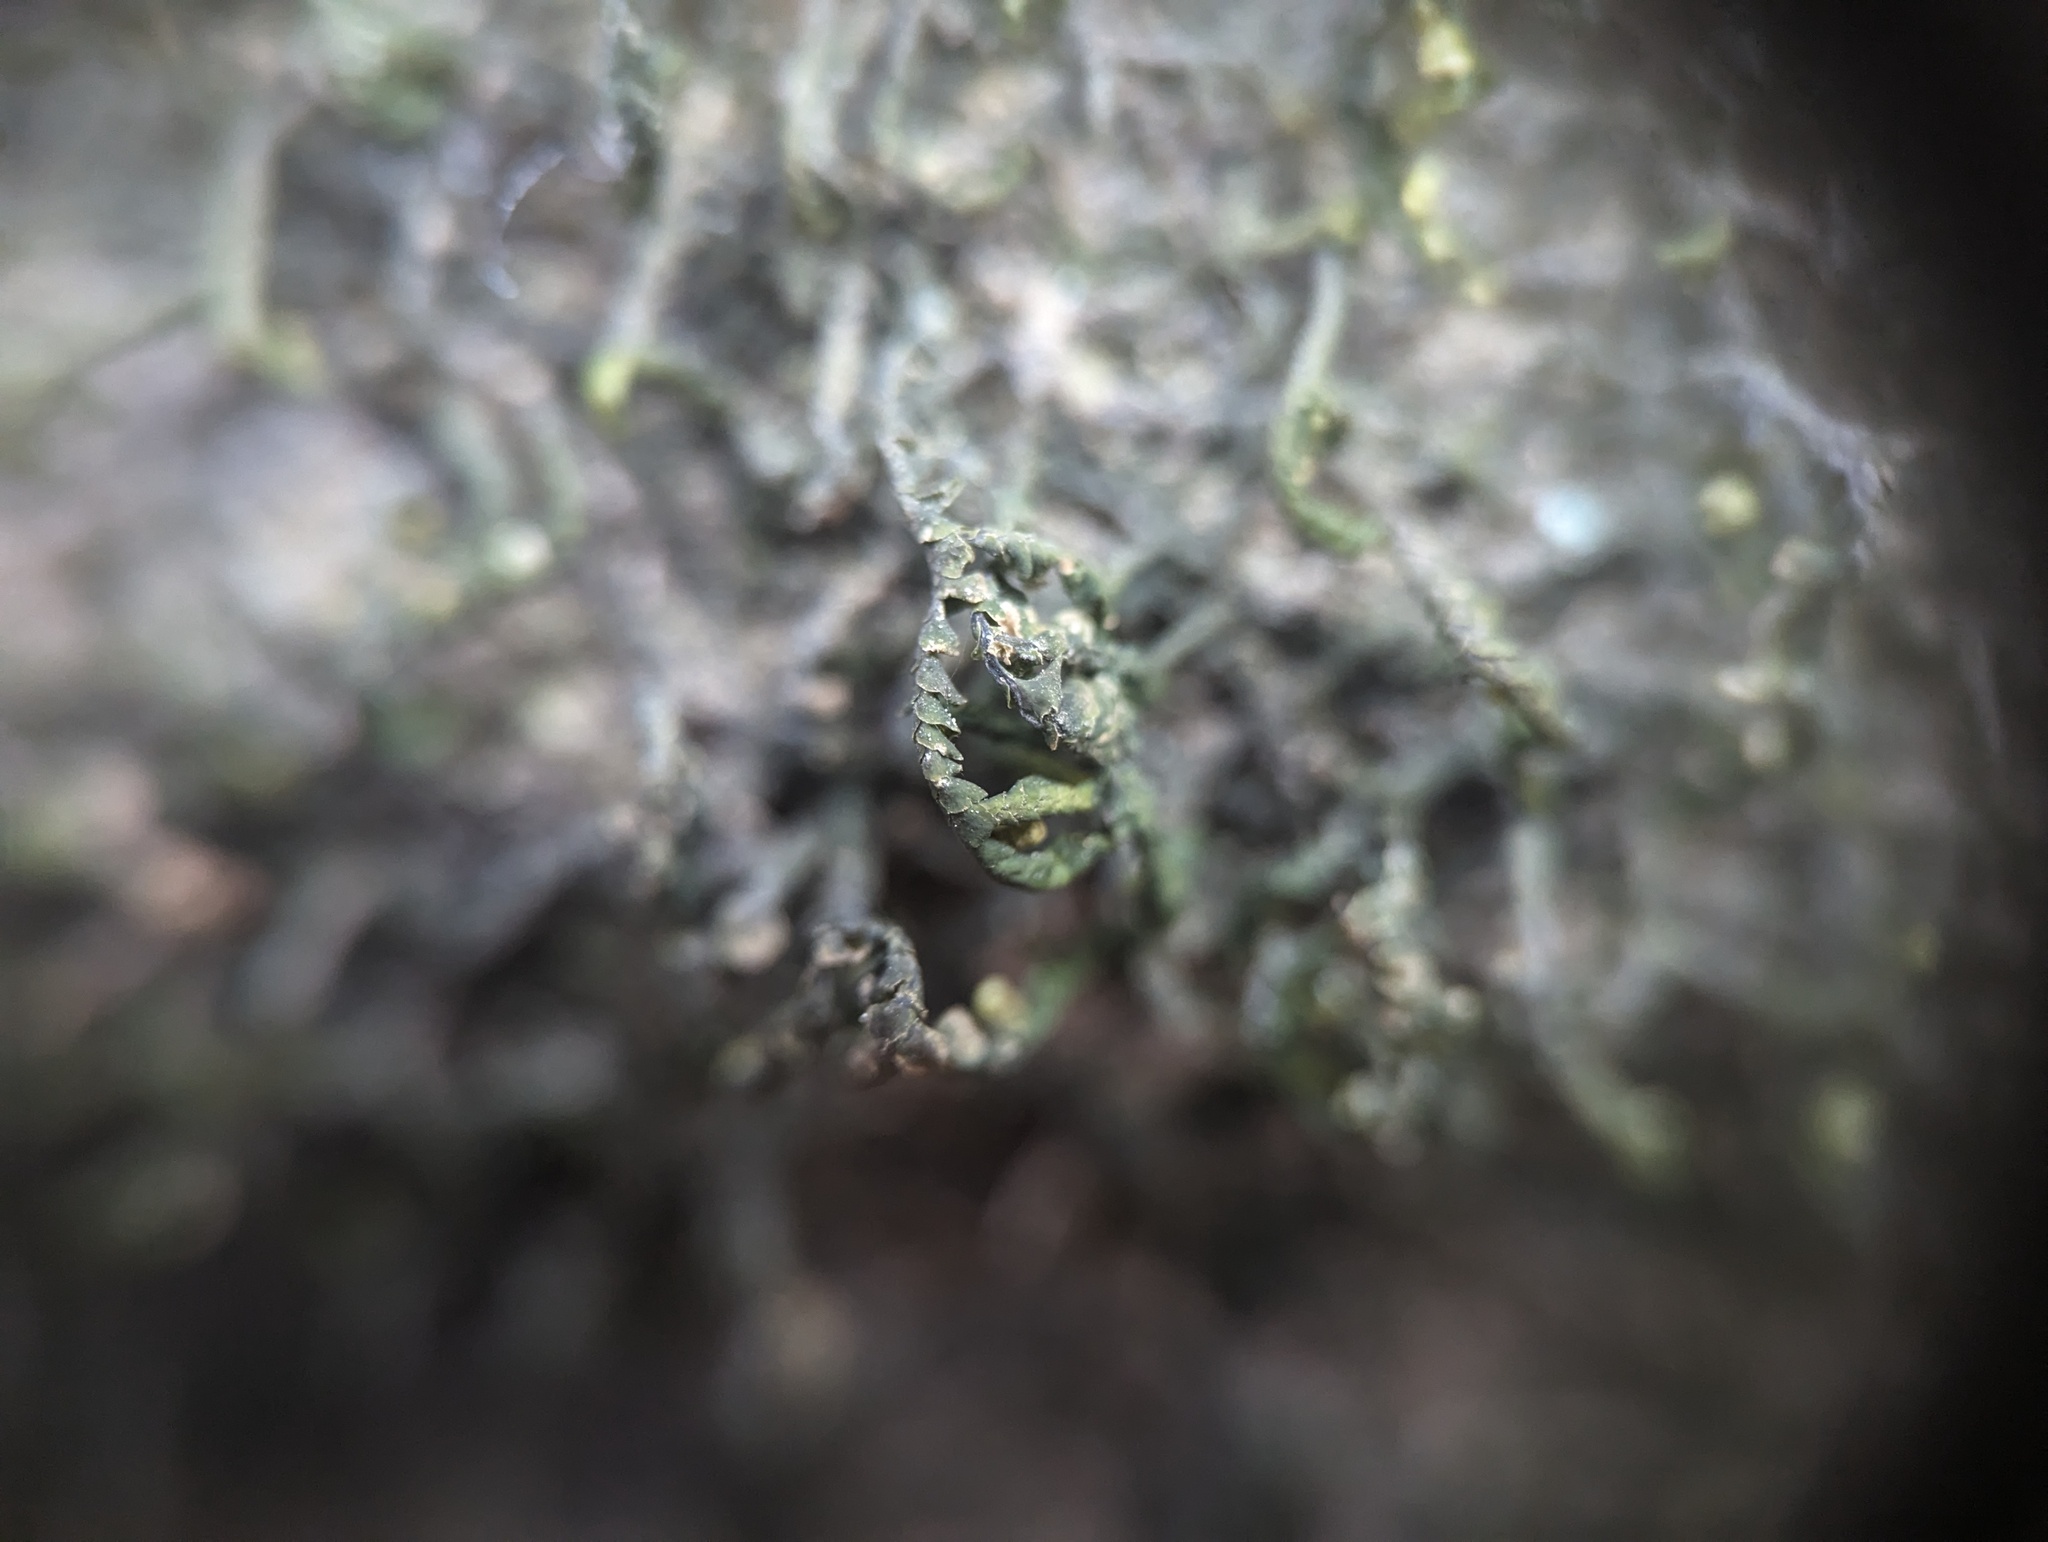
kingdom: Plantae
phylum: Marchantiophyta
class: Jungermanniopsida
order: Porellales
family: Porellaceae
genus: Porella
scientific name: Porella pinnata
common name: Pinnate scalewort
